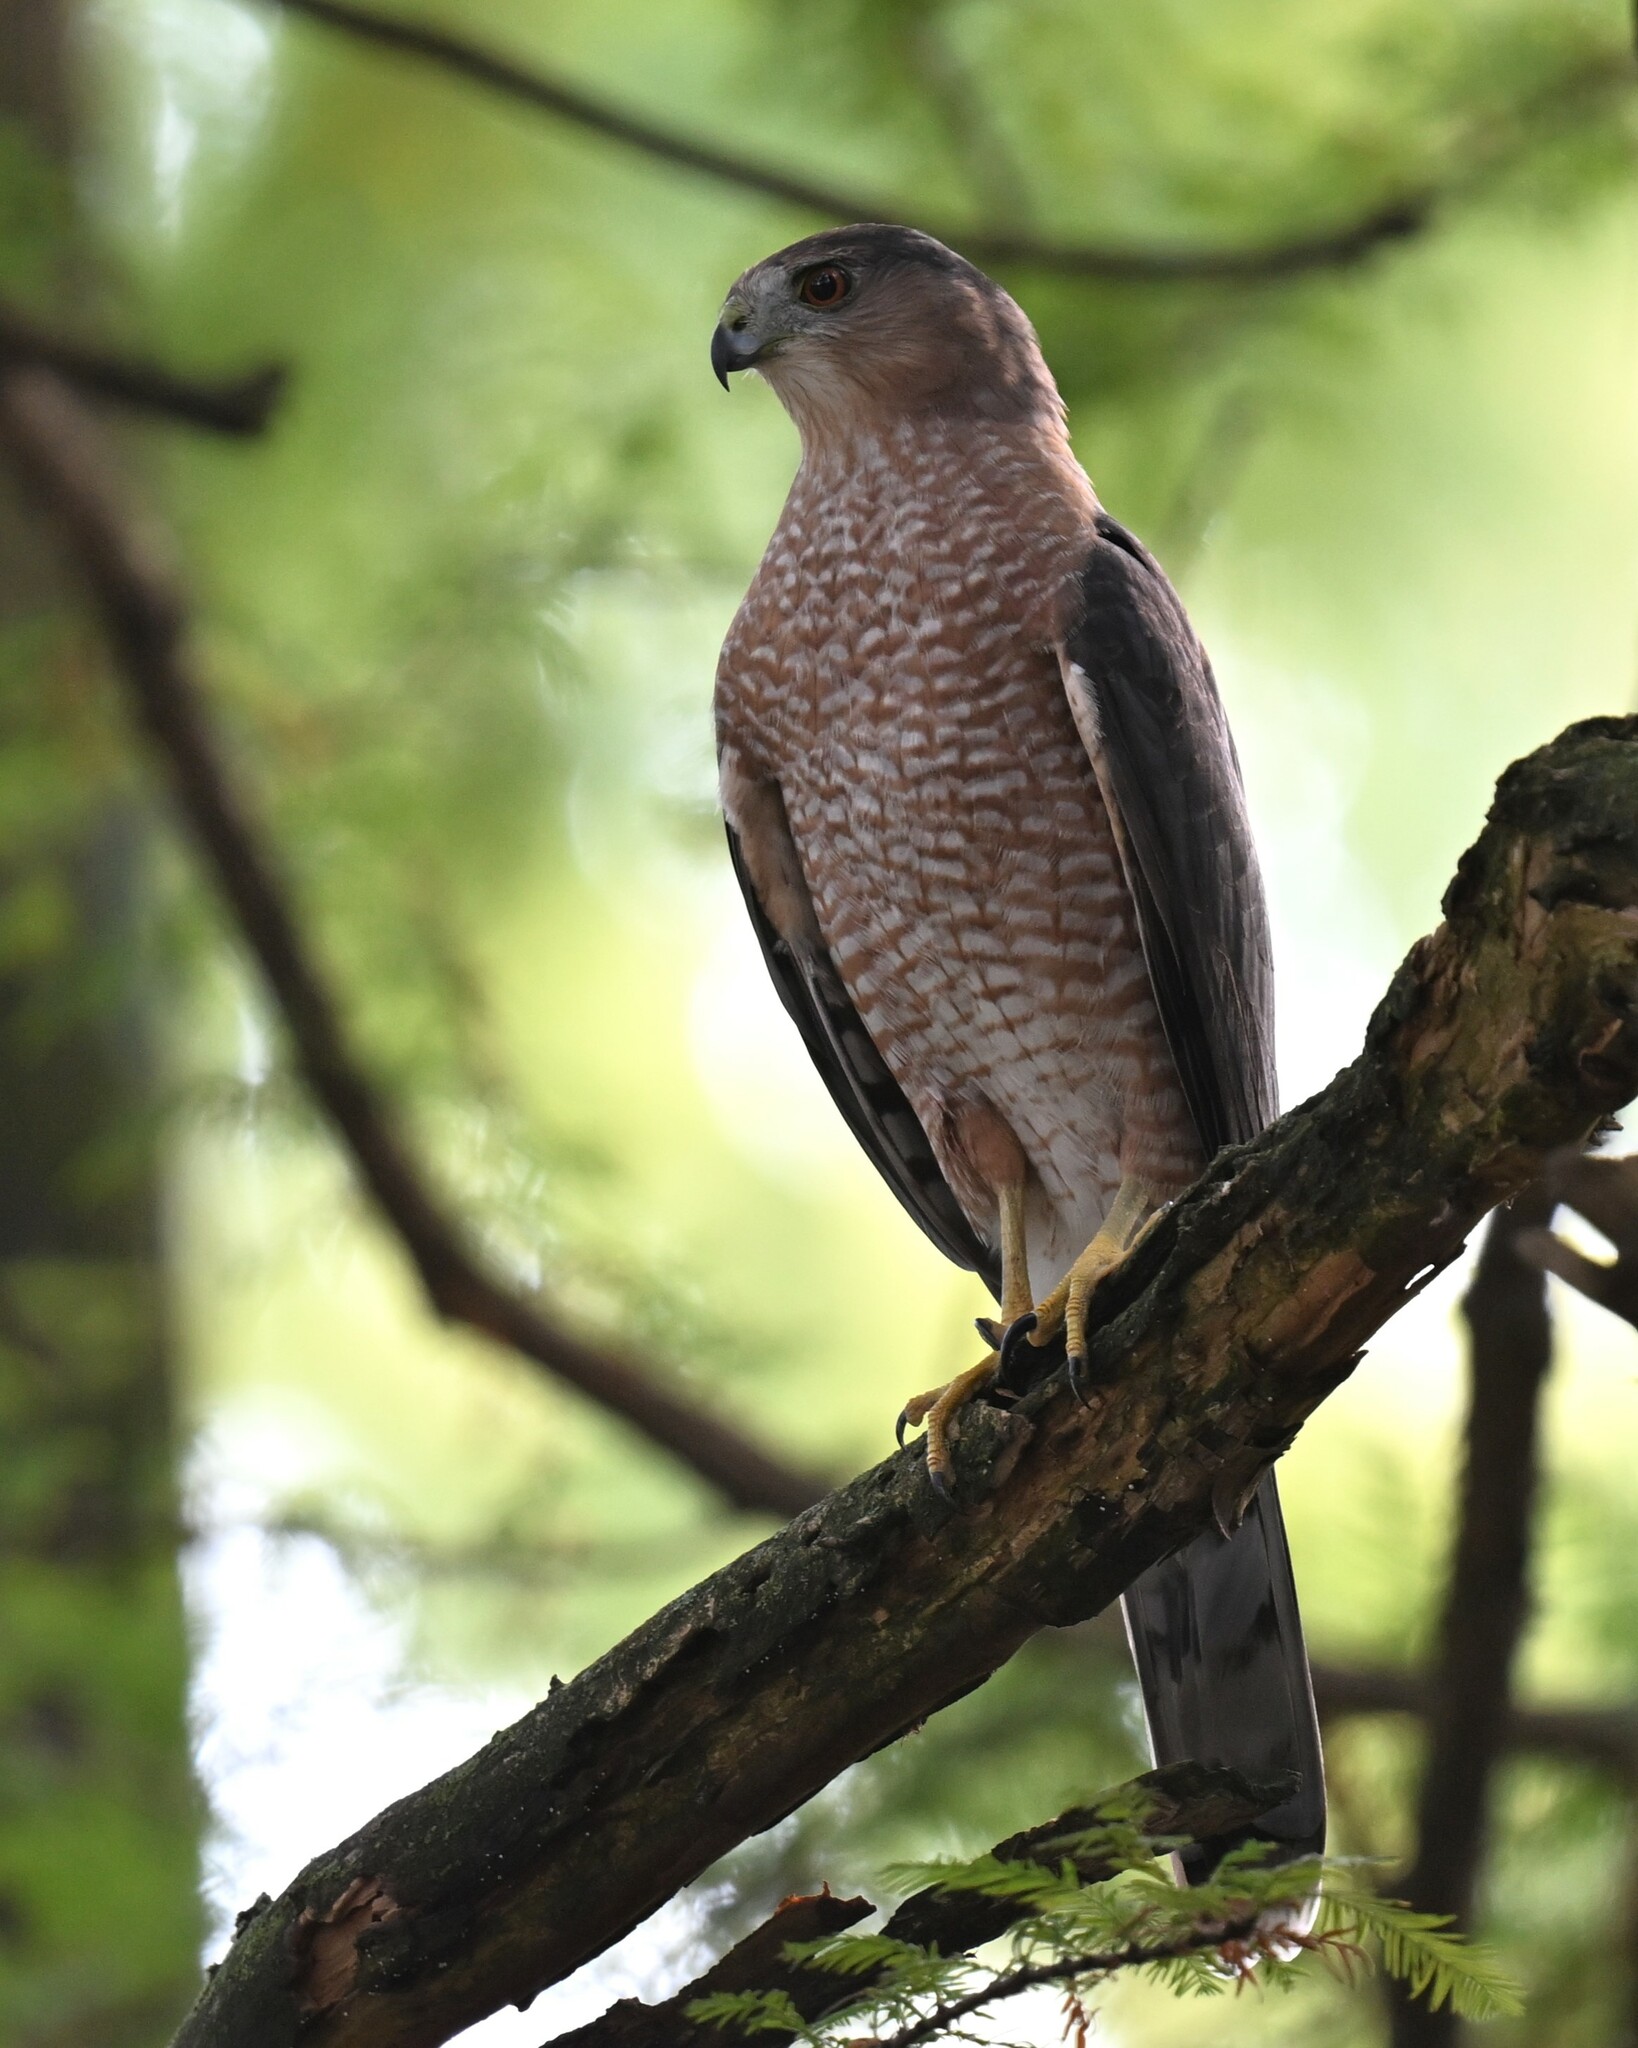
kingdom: Animalia
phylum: Chordata
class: Aves
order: Accipitriformes
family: Accipitridae
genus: Accipiter
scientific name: Accipiter cooperii
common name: Cooper's hawk
